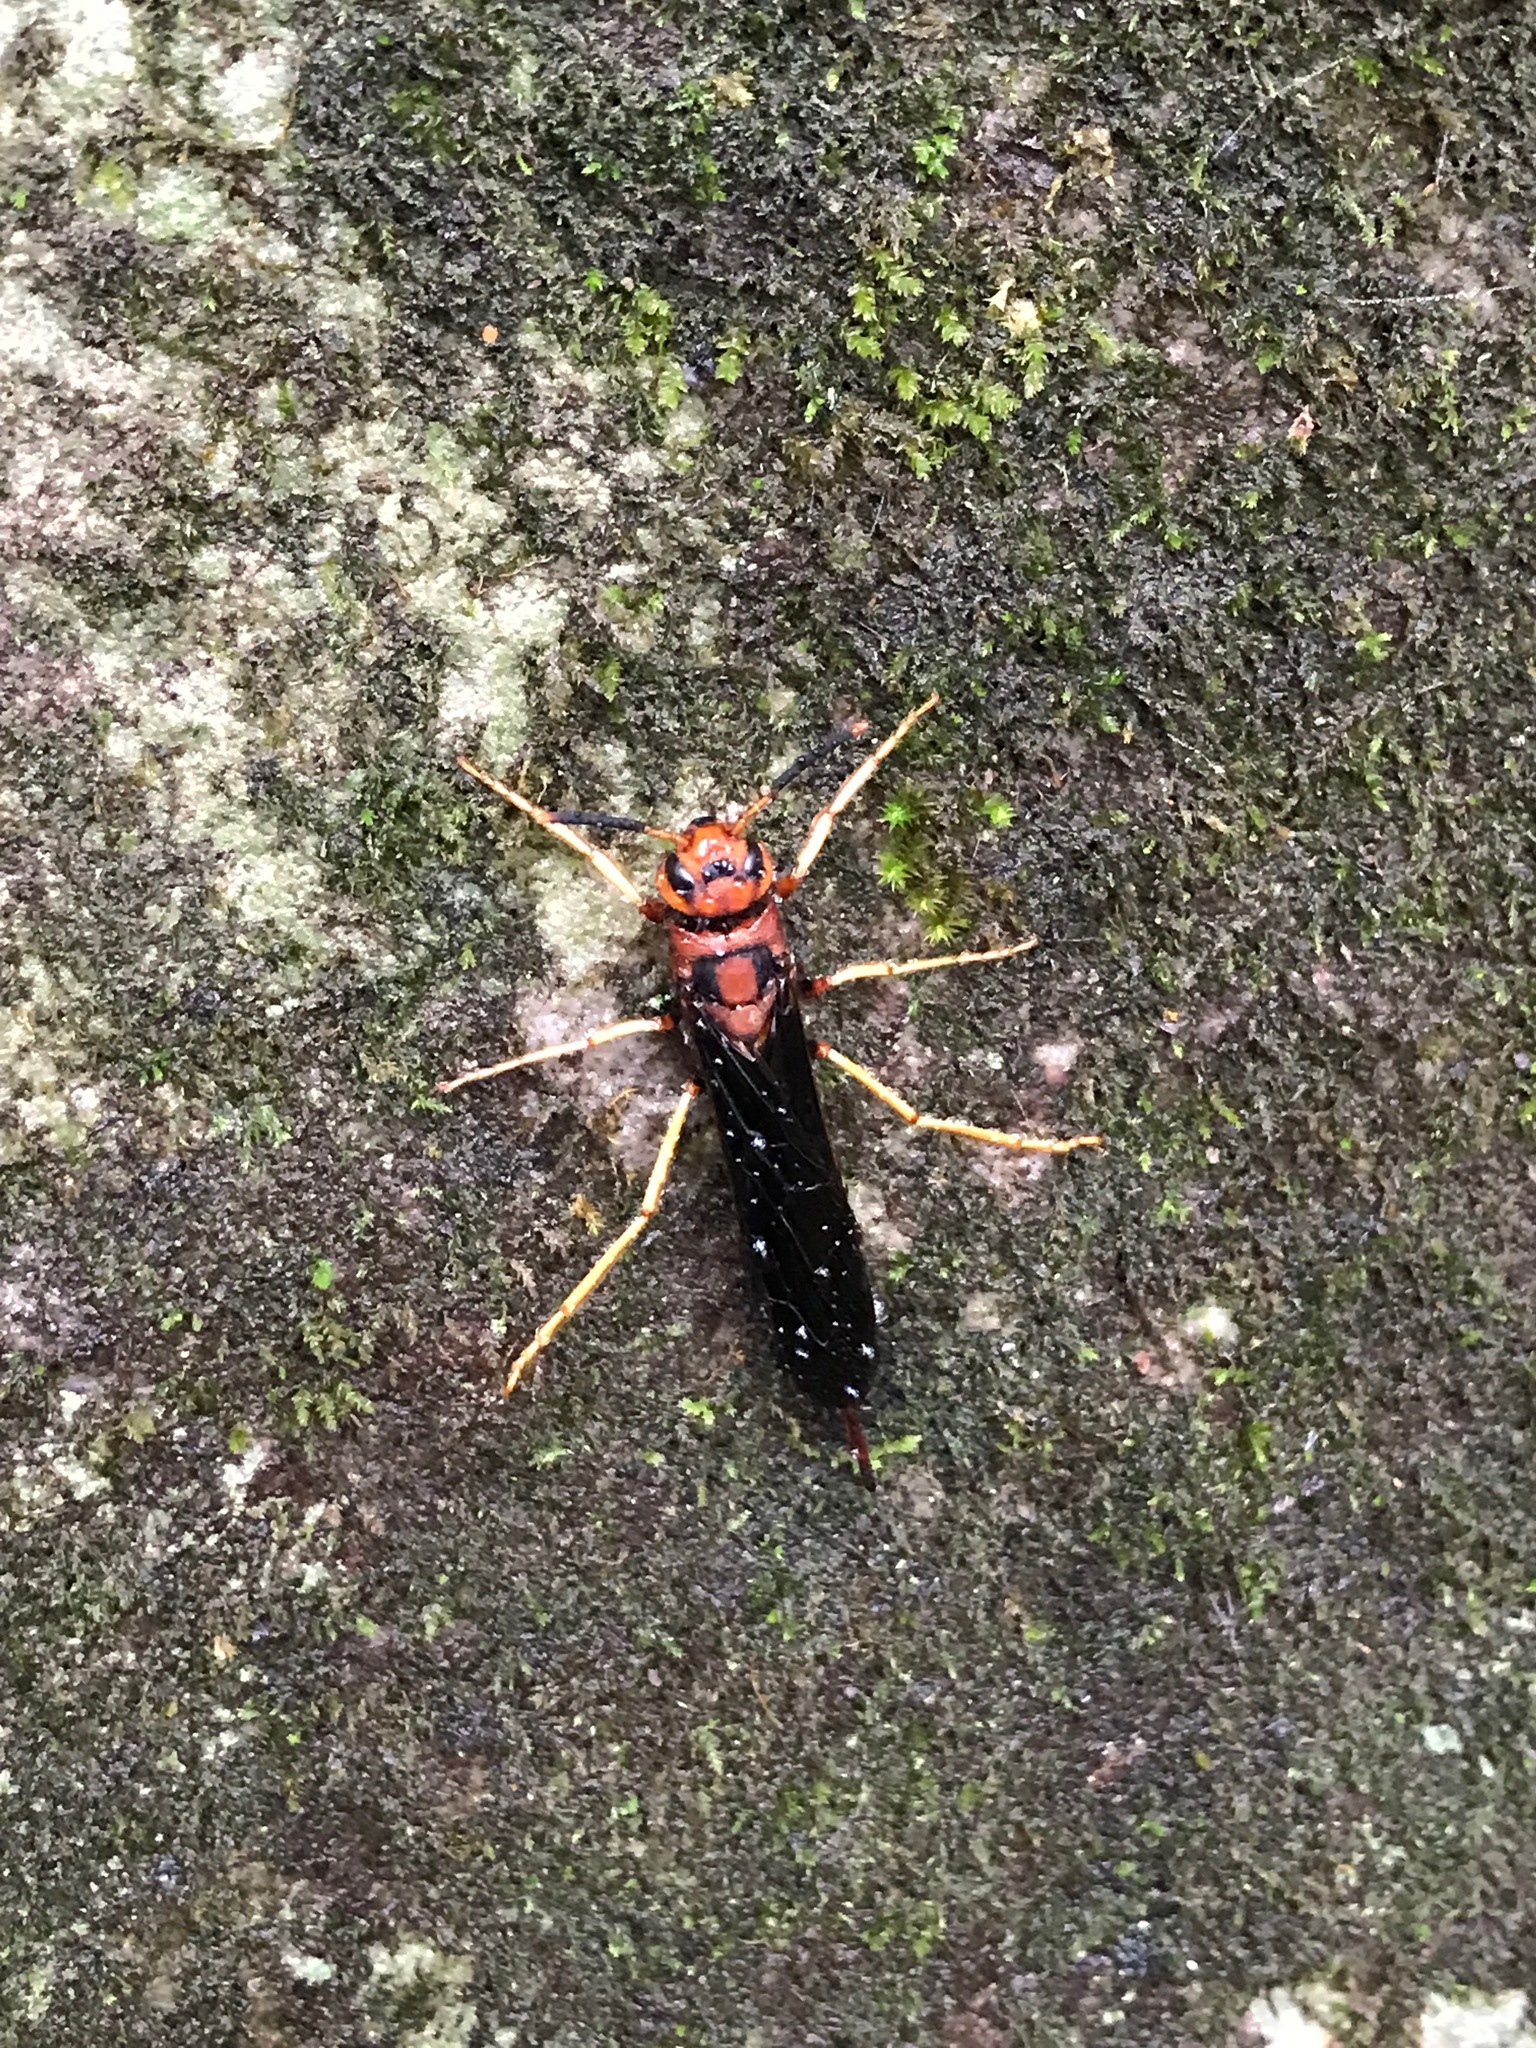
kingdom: Animalia
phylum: Arthropoda
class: Insecta
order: Hymenoptera
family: Siricidae
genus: Tremex
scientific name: Tremex columba
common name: Wasp
